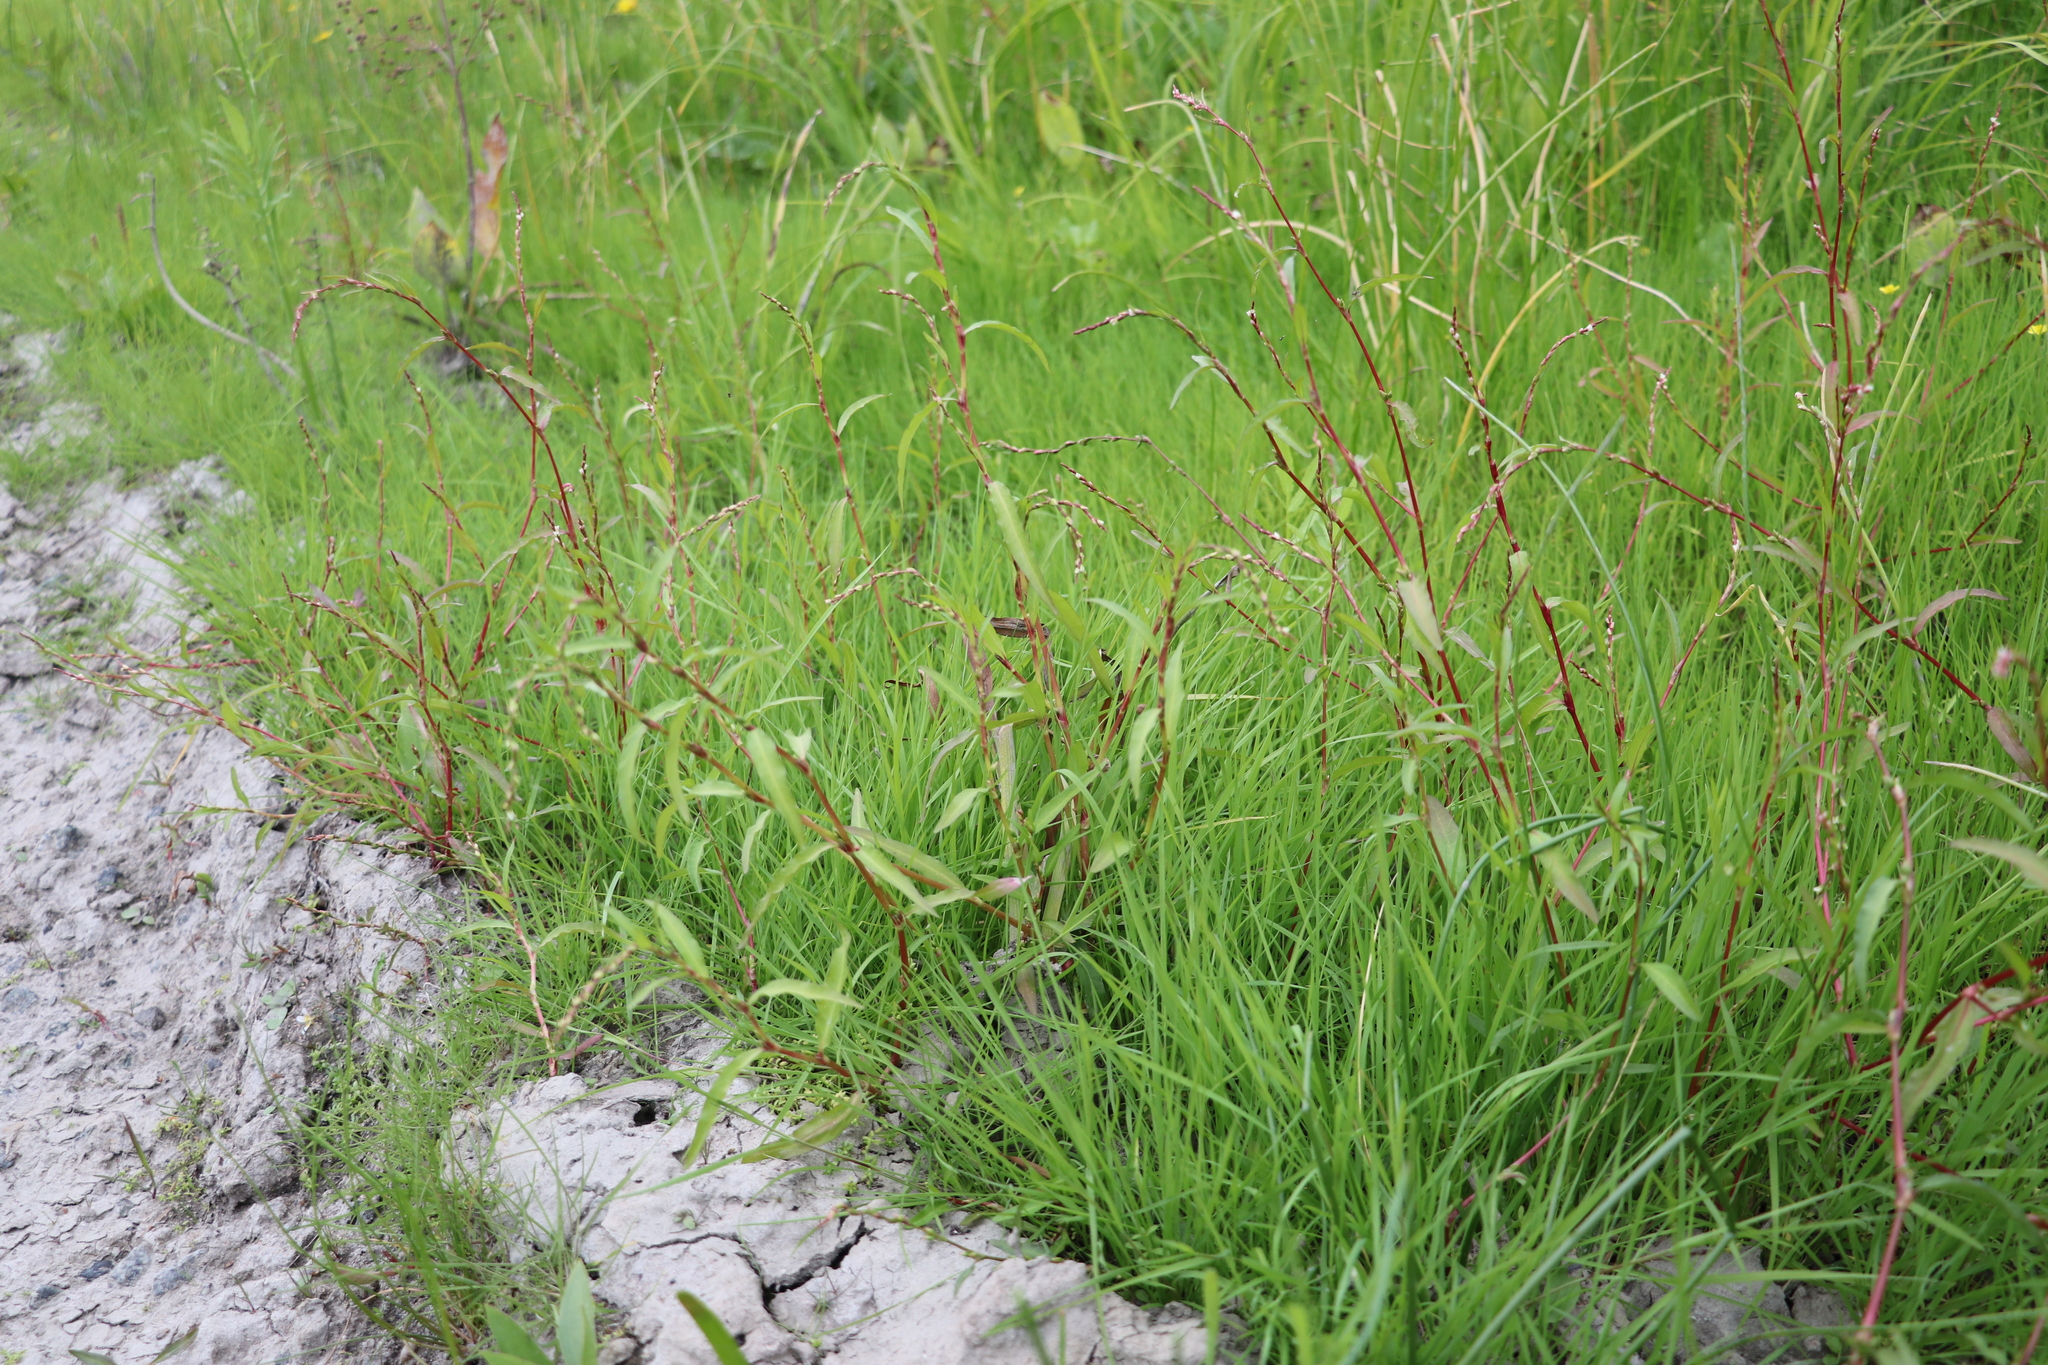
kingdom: Plantae
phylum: Tracheophyta
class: Magnoliopsida
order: Caryophyllales
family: Polygonaceae
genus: Persicaria
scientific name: Persicaria hydropiper
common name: Water-pepper
